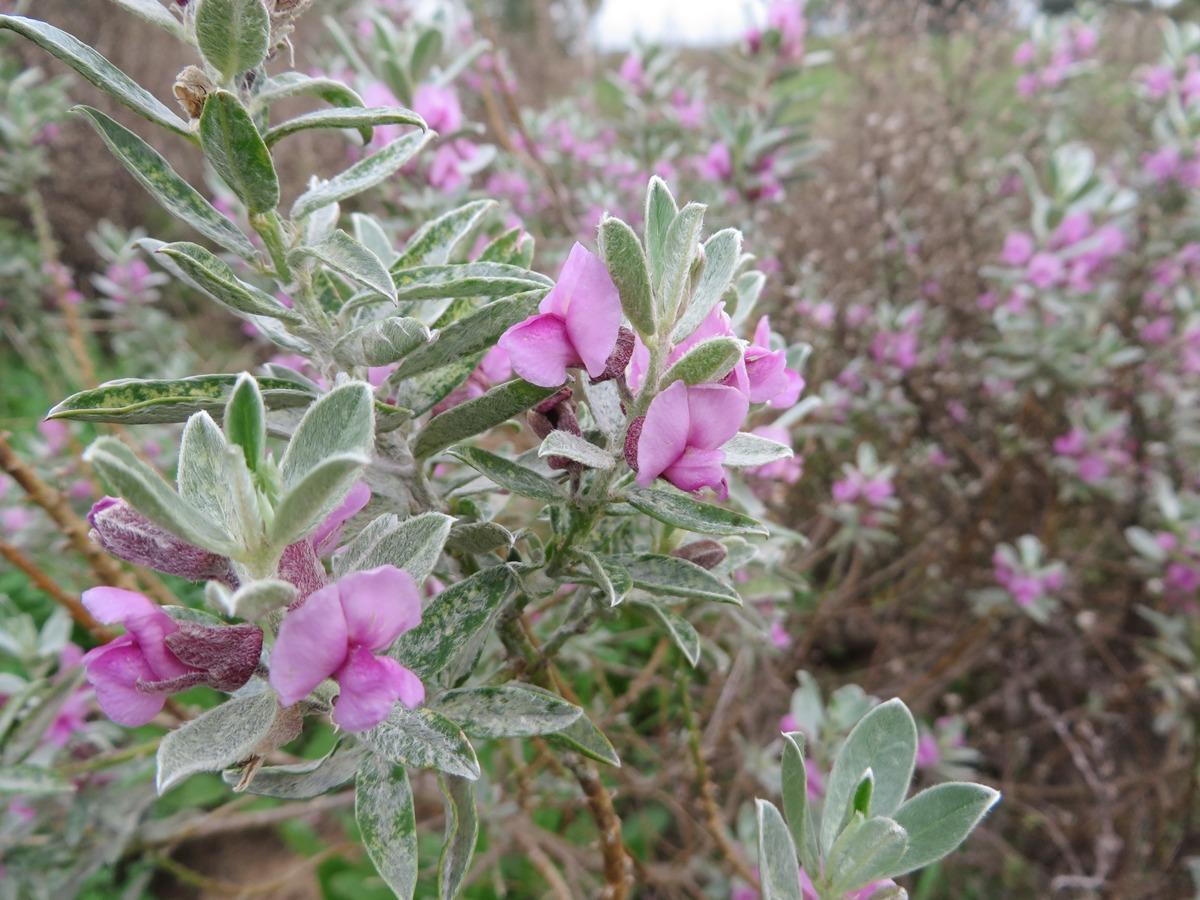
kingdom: Plantae
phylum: Tracheophyta
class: Magnoliopsida
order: Fabales
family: Fabaceae
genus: Podalyria
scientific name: Podalyria sericea
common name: Silver podalyria
